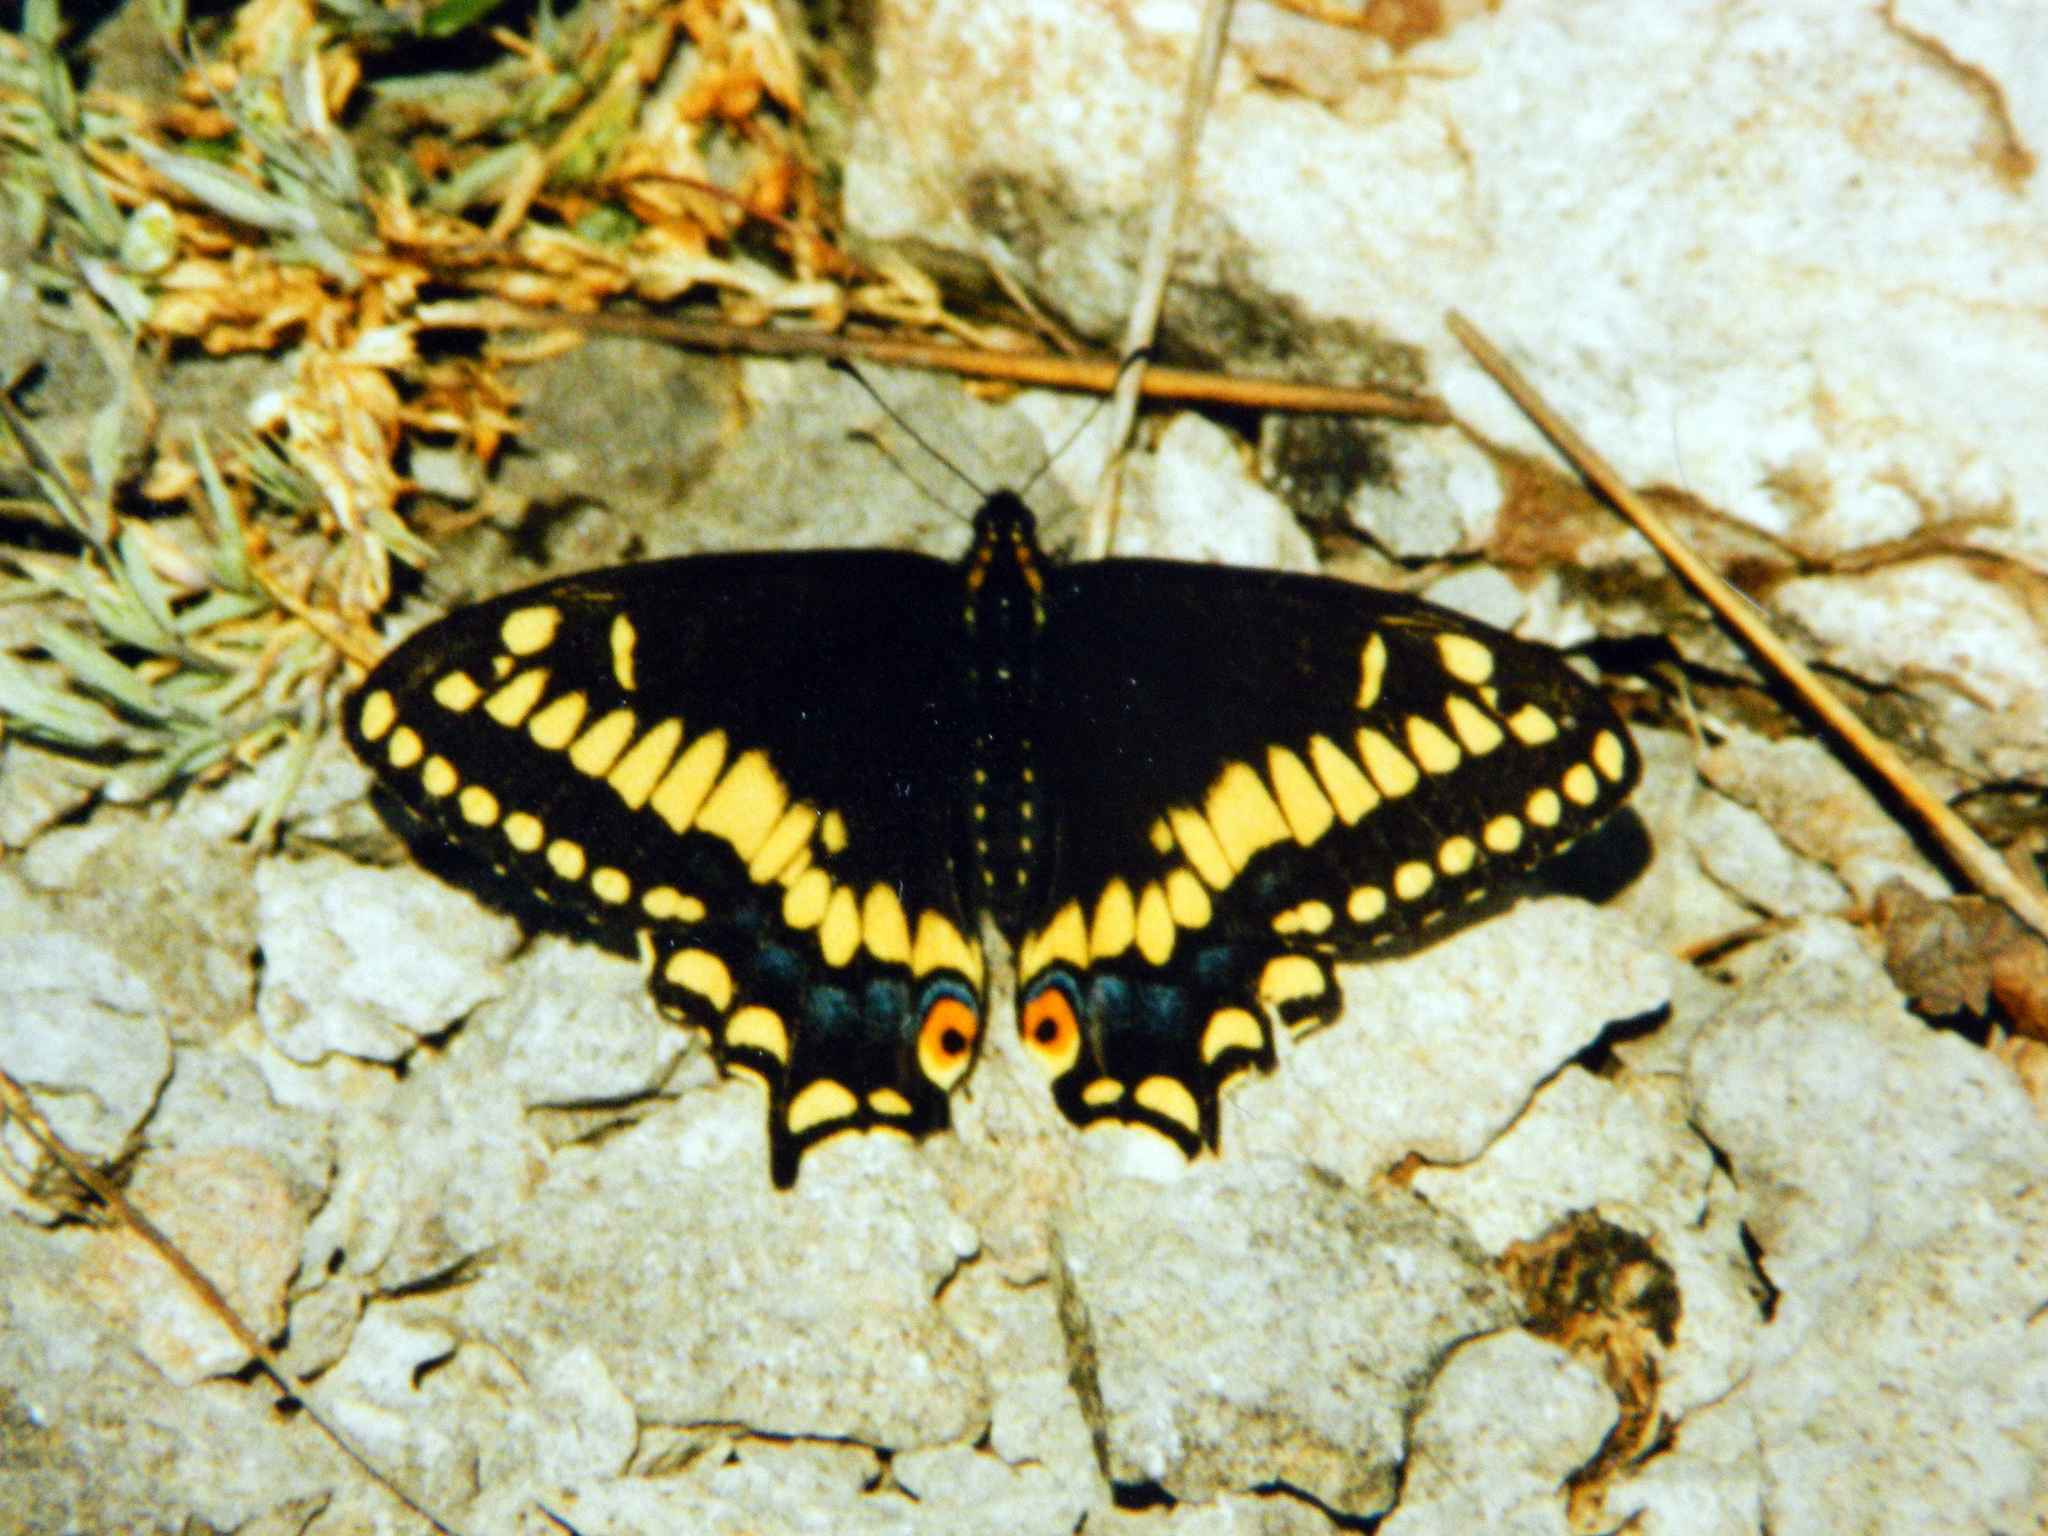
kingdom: Animalia
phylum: Arthropoda
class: Insecta
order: Lepidoptera
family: Papilionidae
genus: Papilio
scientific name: Papilio brevicauda
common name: Short tailed swallowtail
